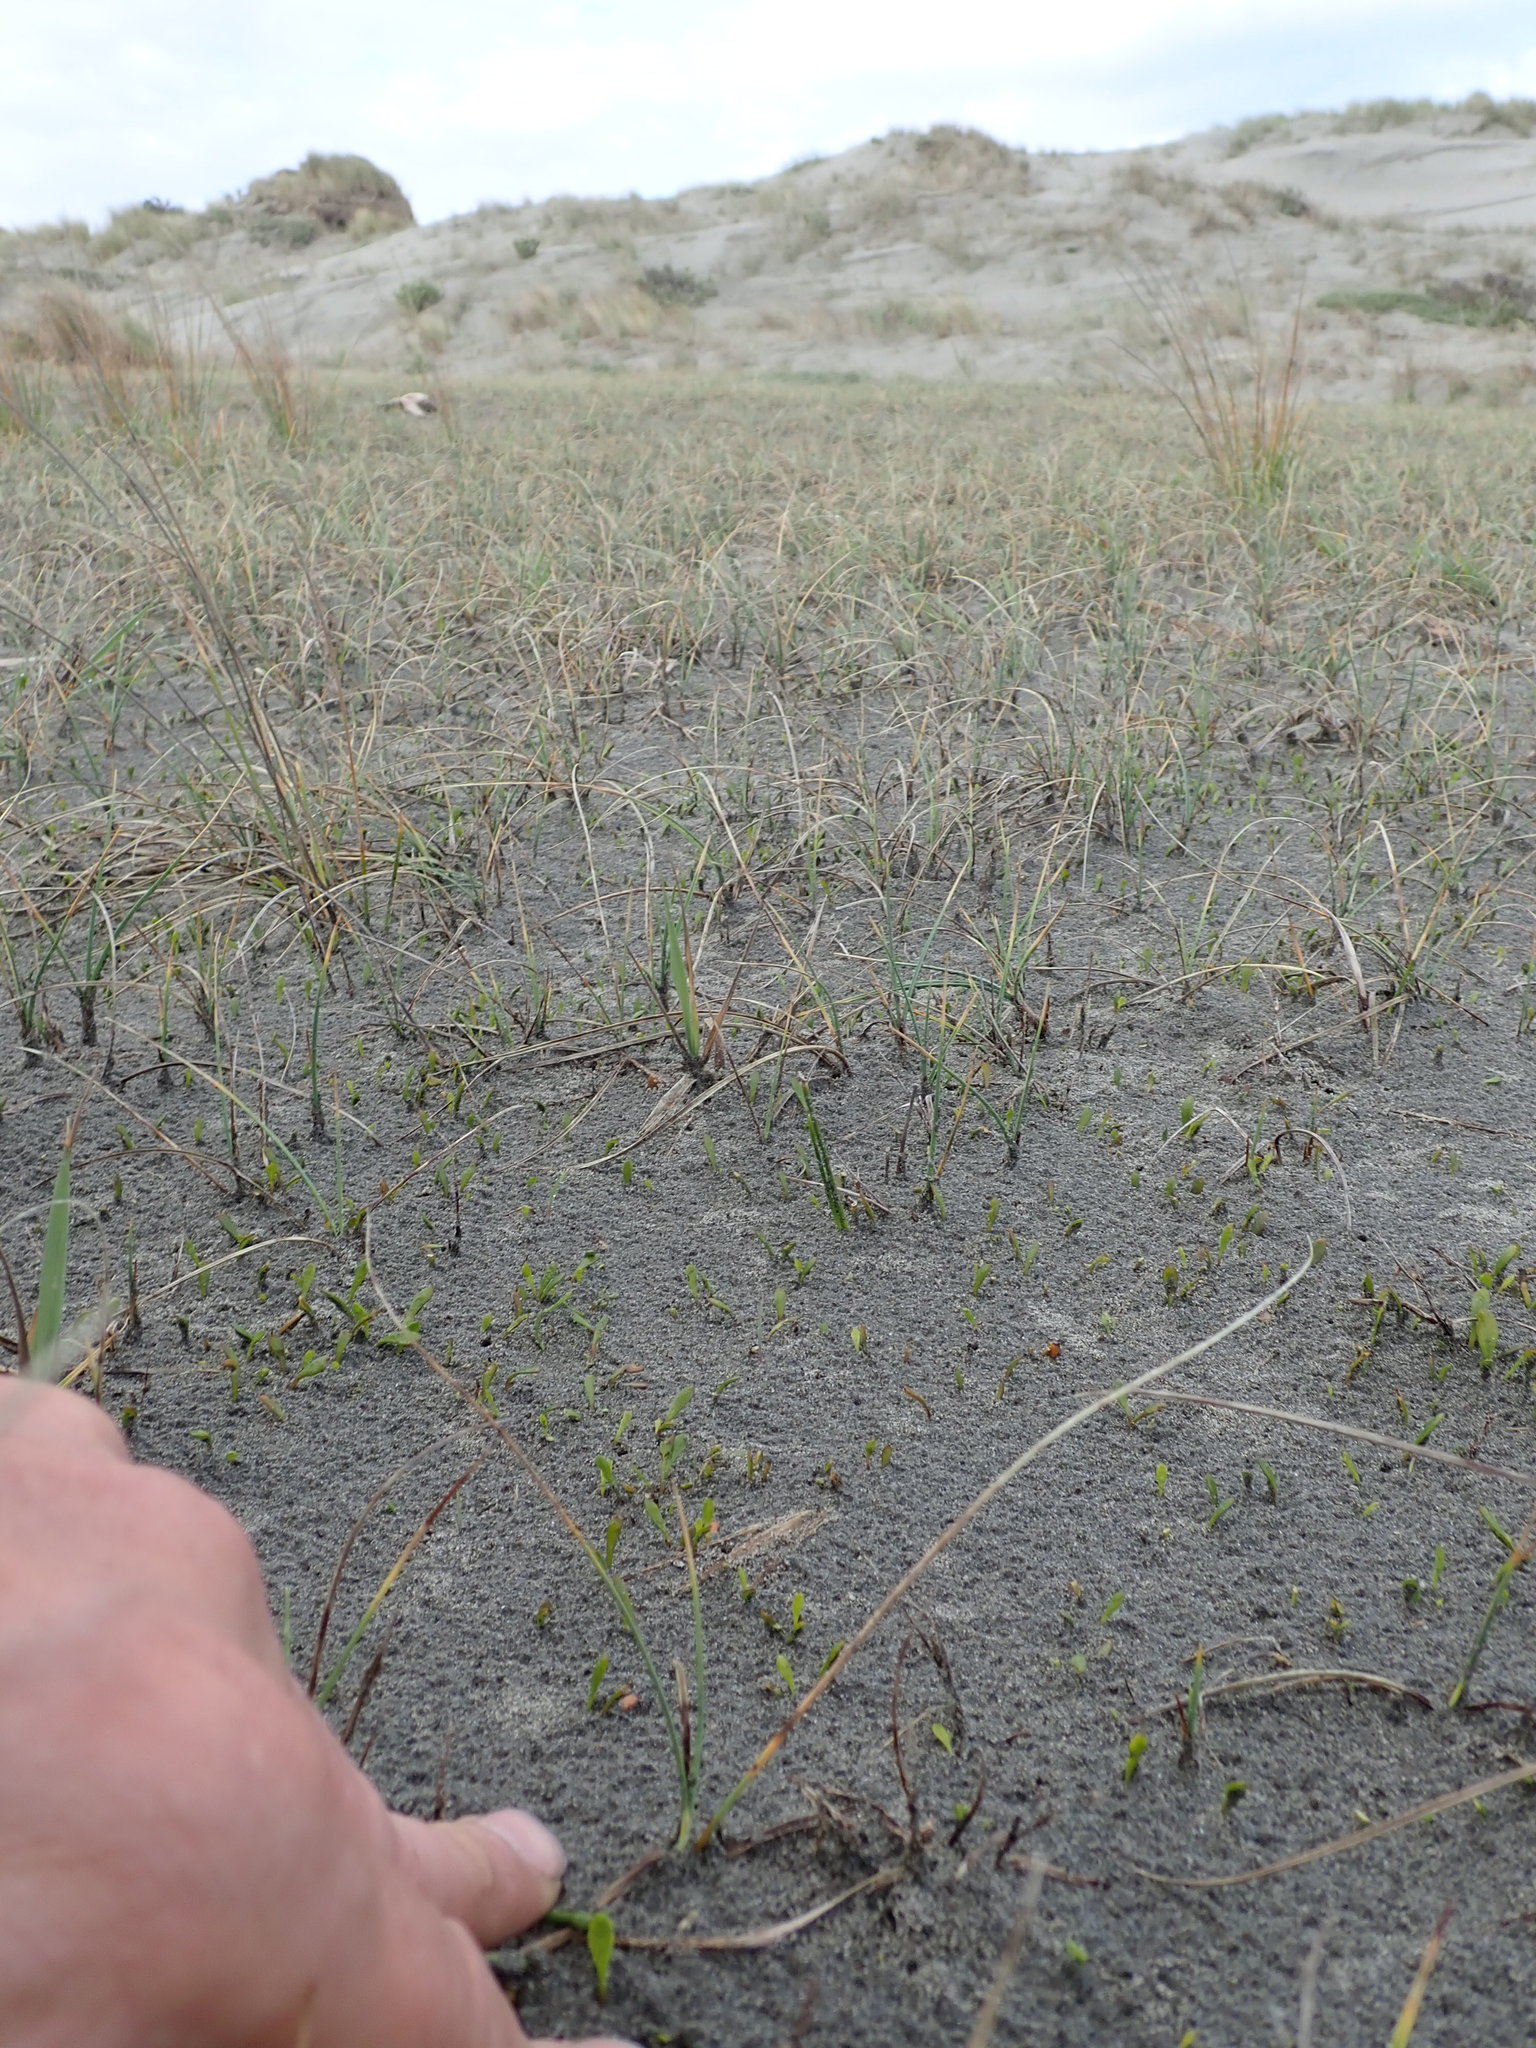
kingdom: Plantae
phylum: Tracheophyta
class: Magnoliopsida
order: Asterales
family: Goodeniaceae
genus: Goodenia
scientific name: Goodenia radicans
